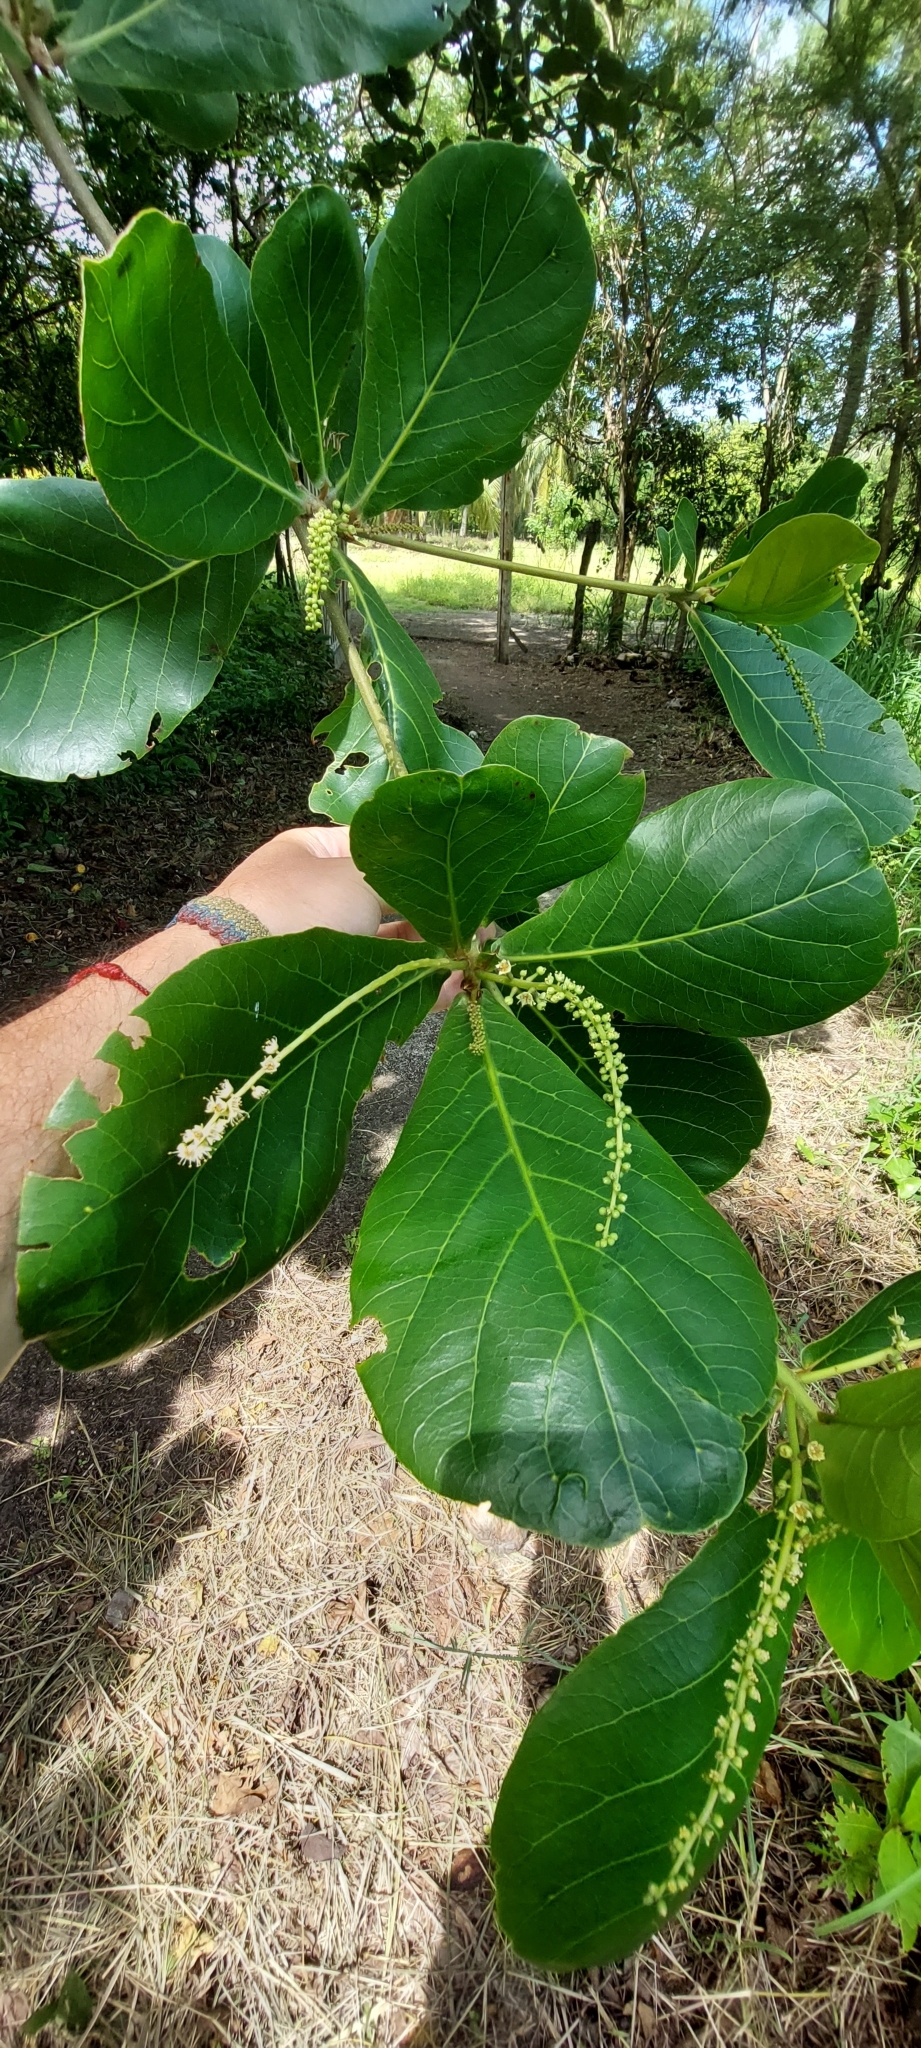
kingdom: Plantae
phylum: Tracheophyta
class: Magnoliopsida
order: Myrtales
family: Combretaceae
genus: Terminalia
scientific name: Terminalia catappa
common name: Tropical almond
